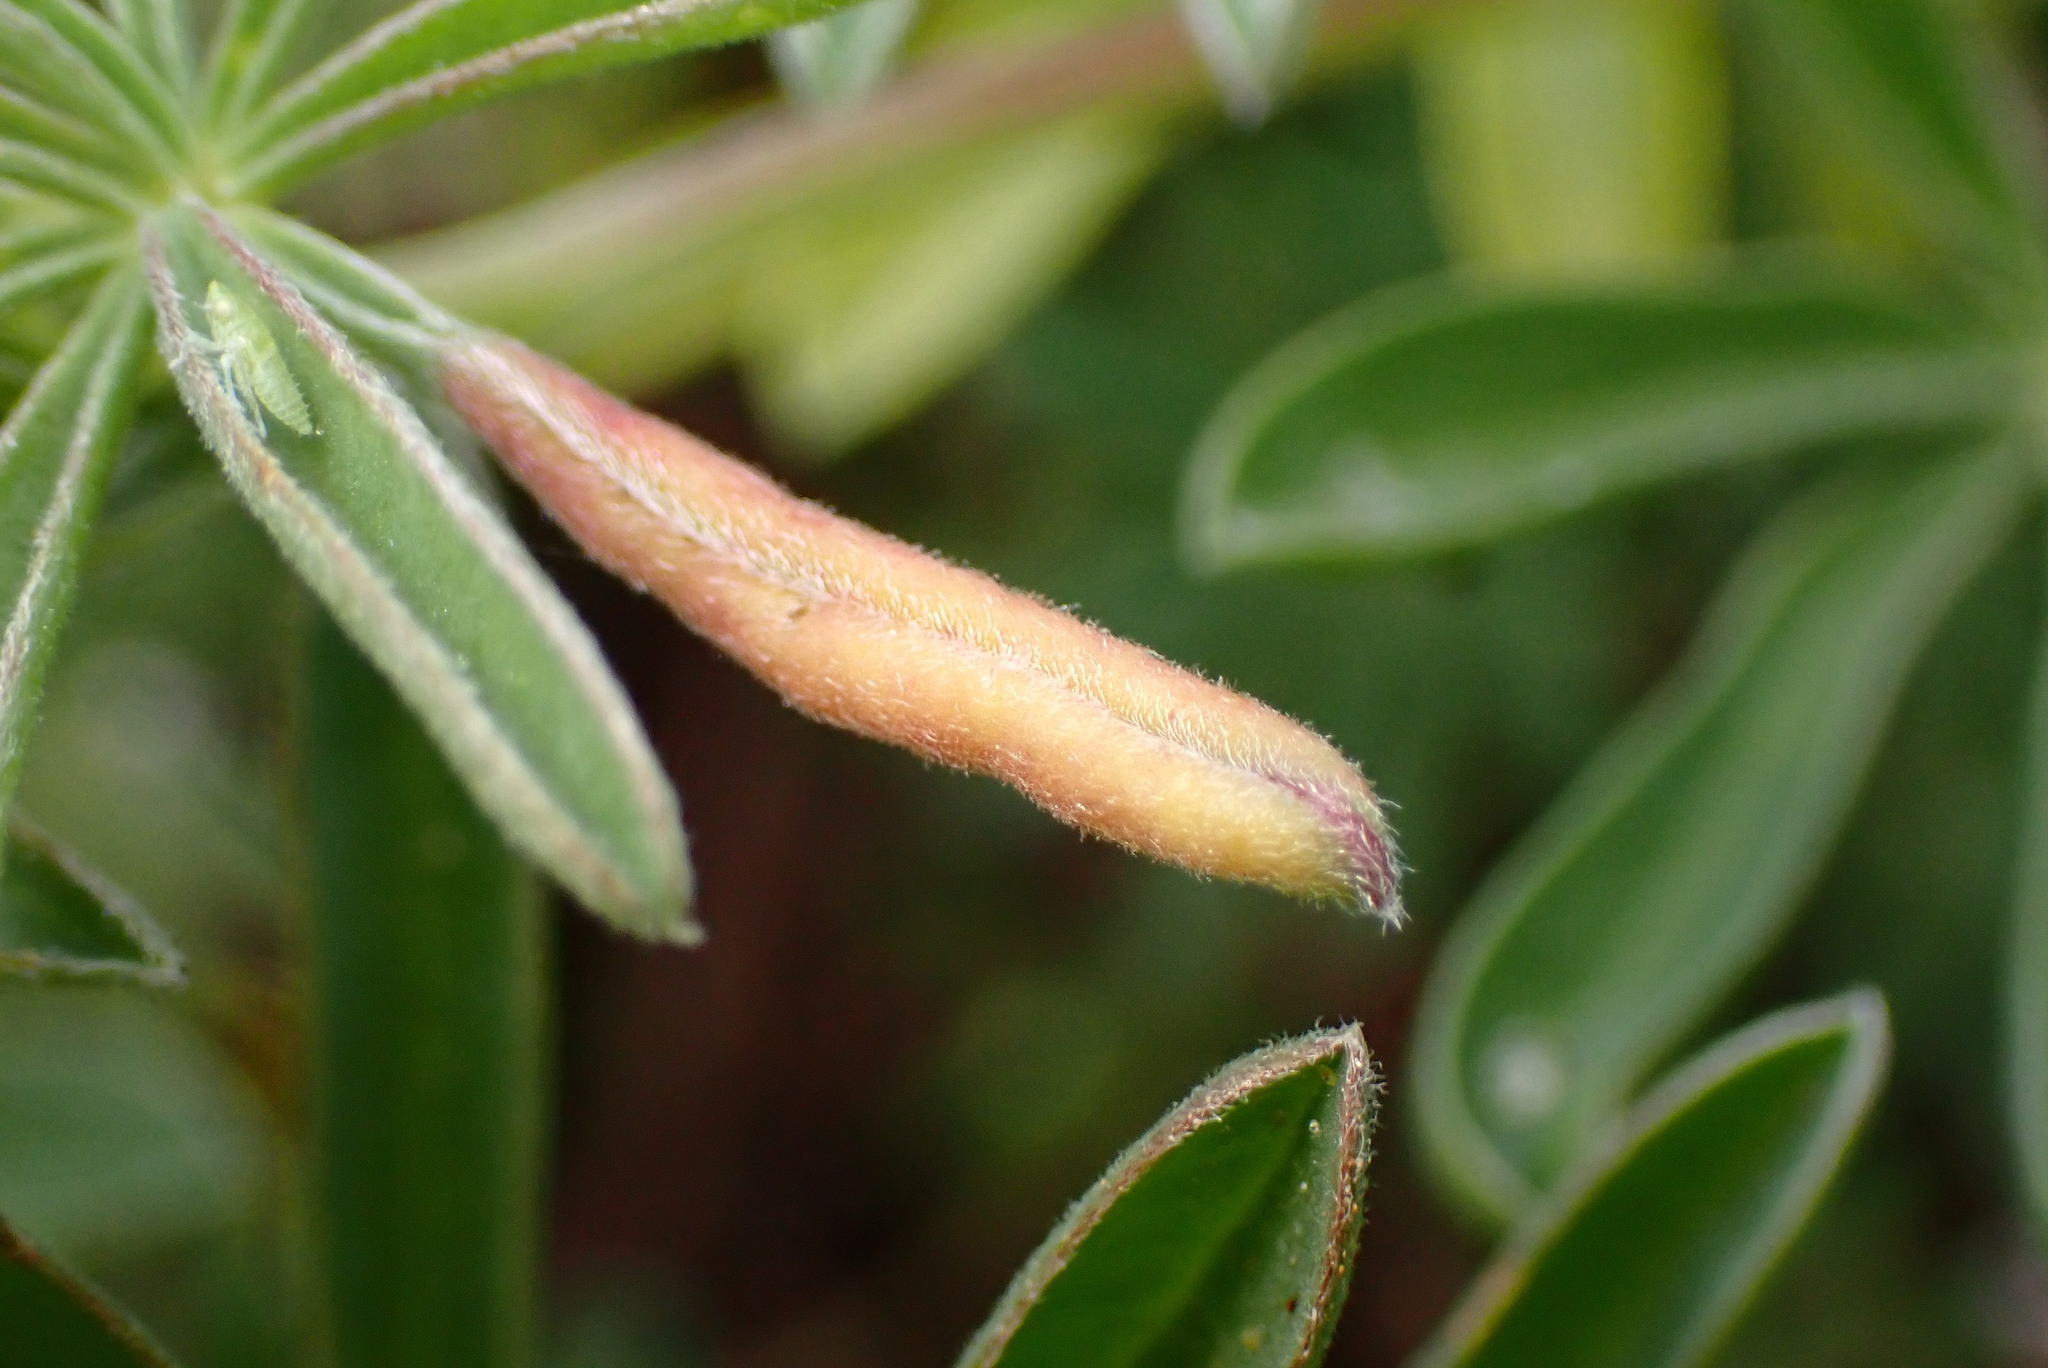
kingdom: Animalia
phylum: Arthropoda
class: Insecta
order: Diptera
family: Cecidomyiidae
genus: Dasineura
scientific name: Dasineura lupinorum
